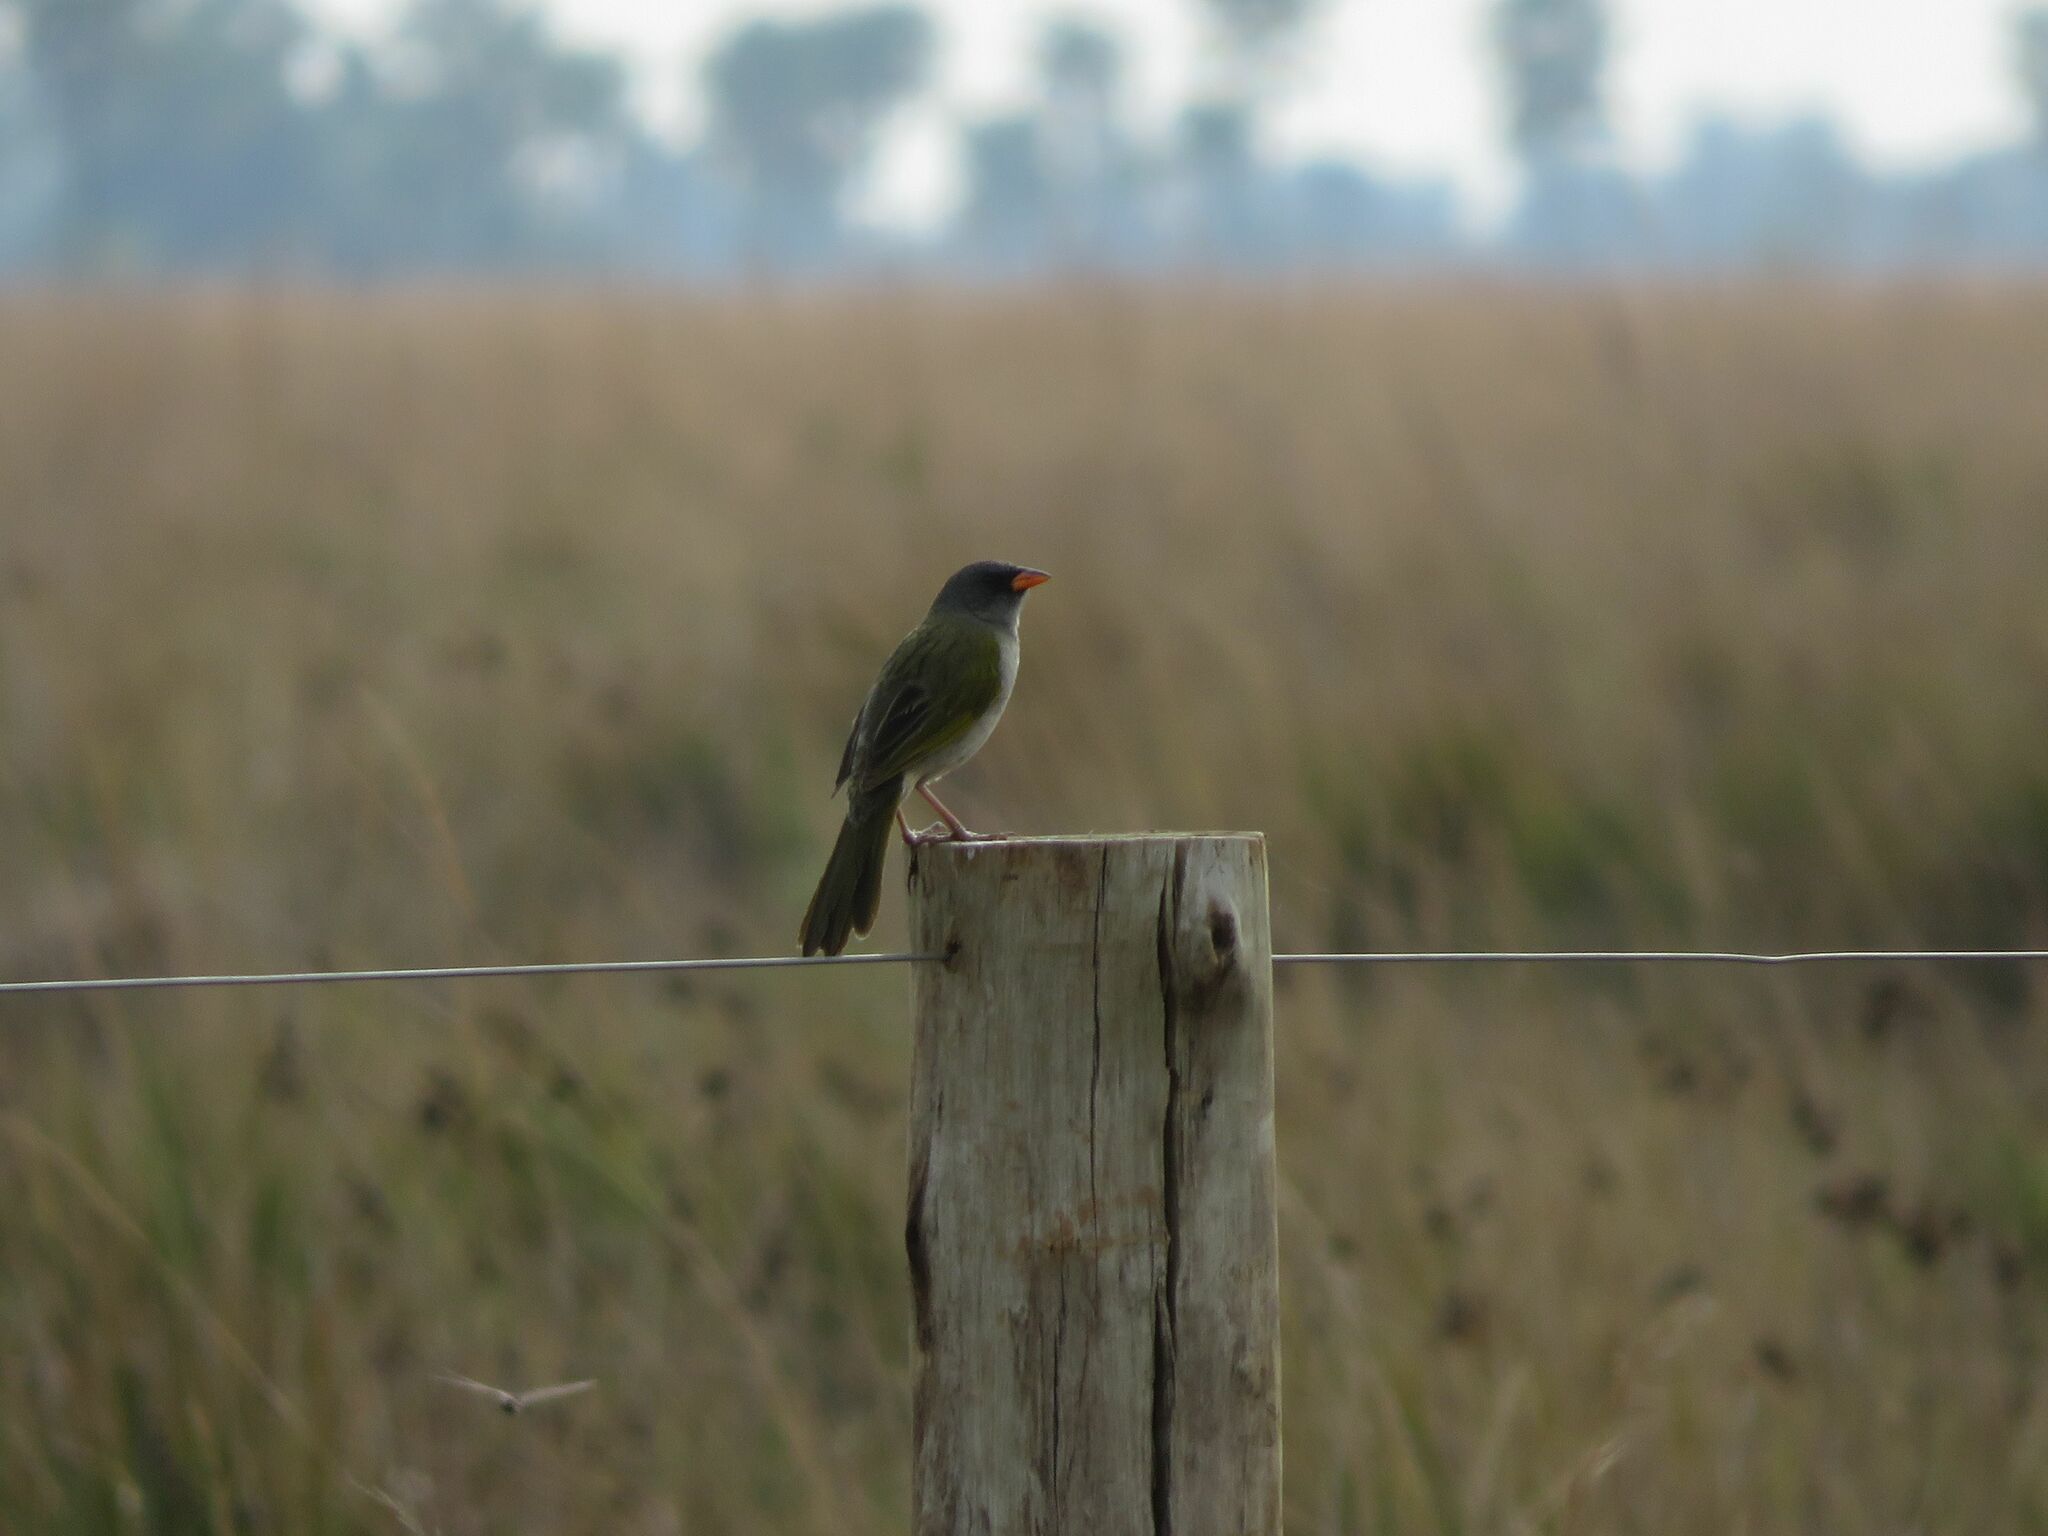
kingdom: Animalia
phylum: Chordata
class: Aves
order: Passeriformes
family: Thraupidae
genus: Embernagra
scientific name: Embernagra platensis
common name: Pampa finch
